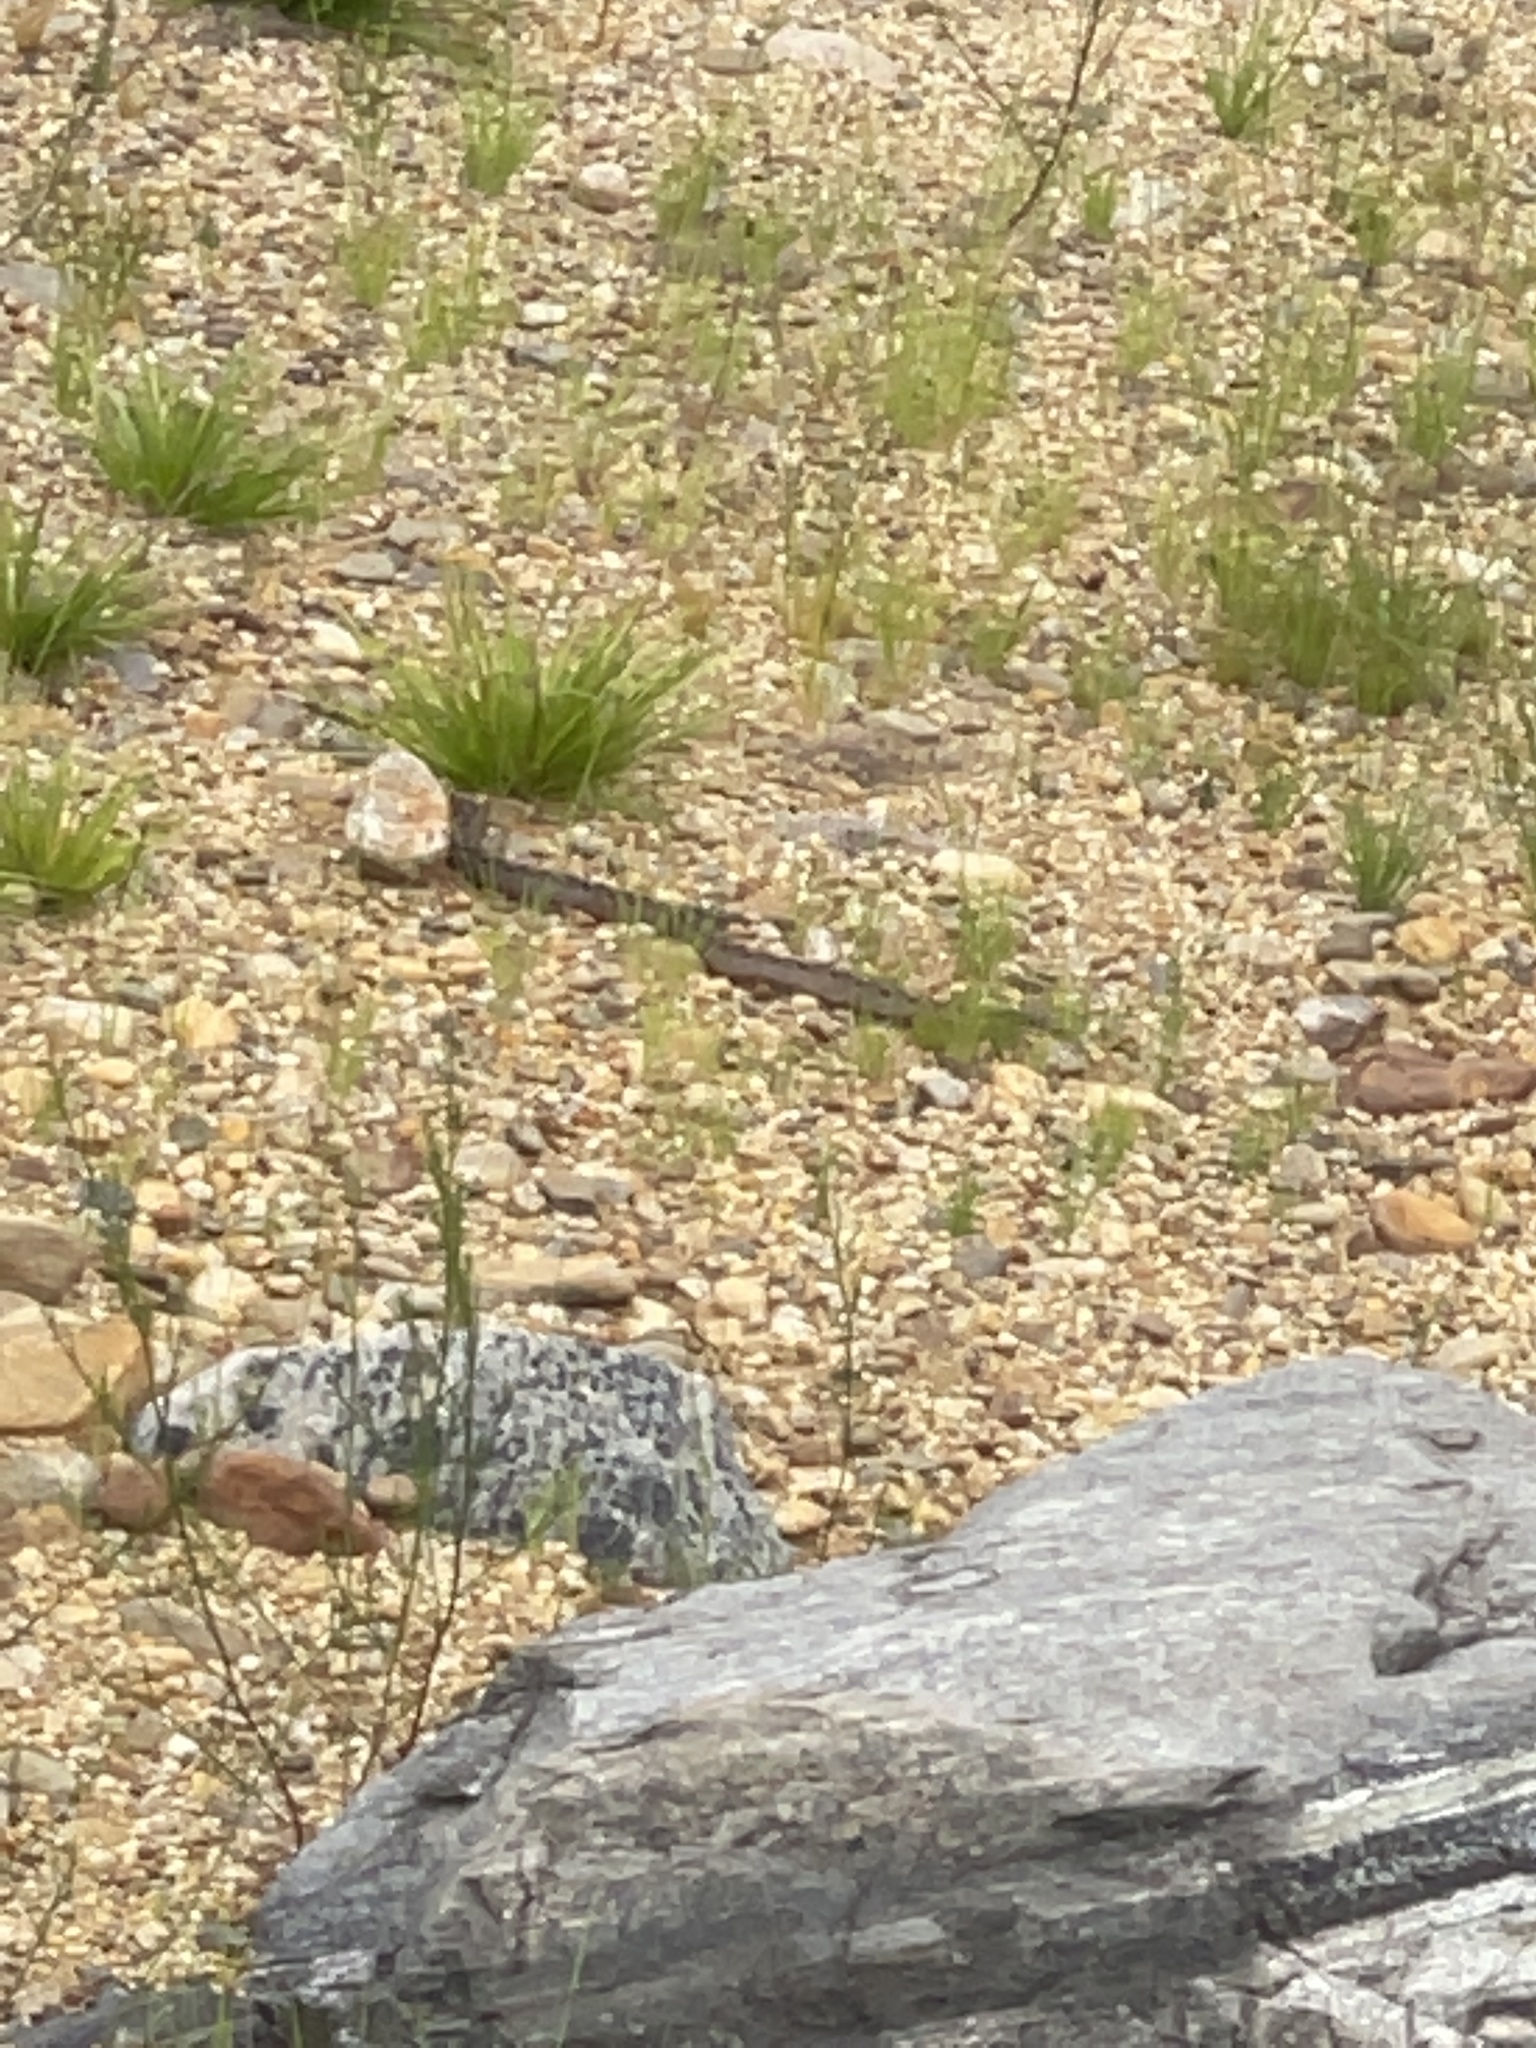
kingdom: Animalia
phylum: Chordata
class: Squamata
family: Colubridae
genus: Heterodon
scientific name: Heterodon platirhinos
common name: Eastern hognose snake
